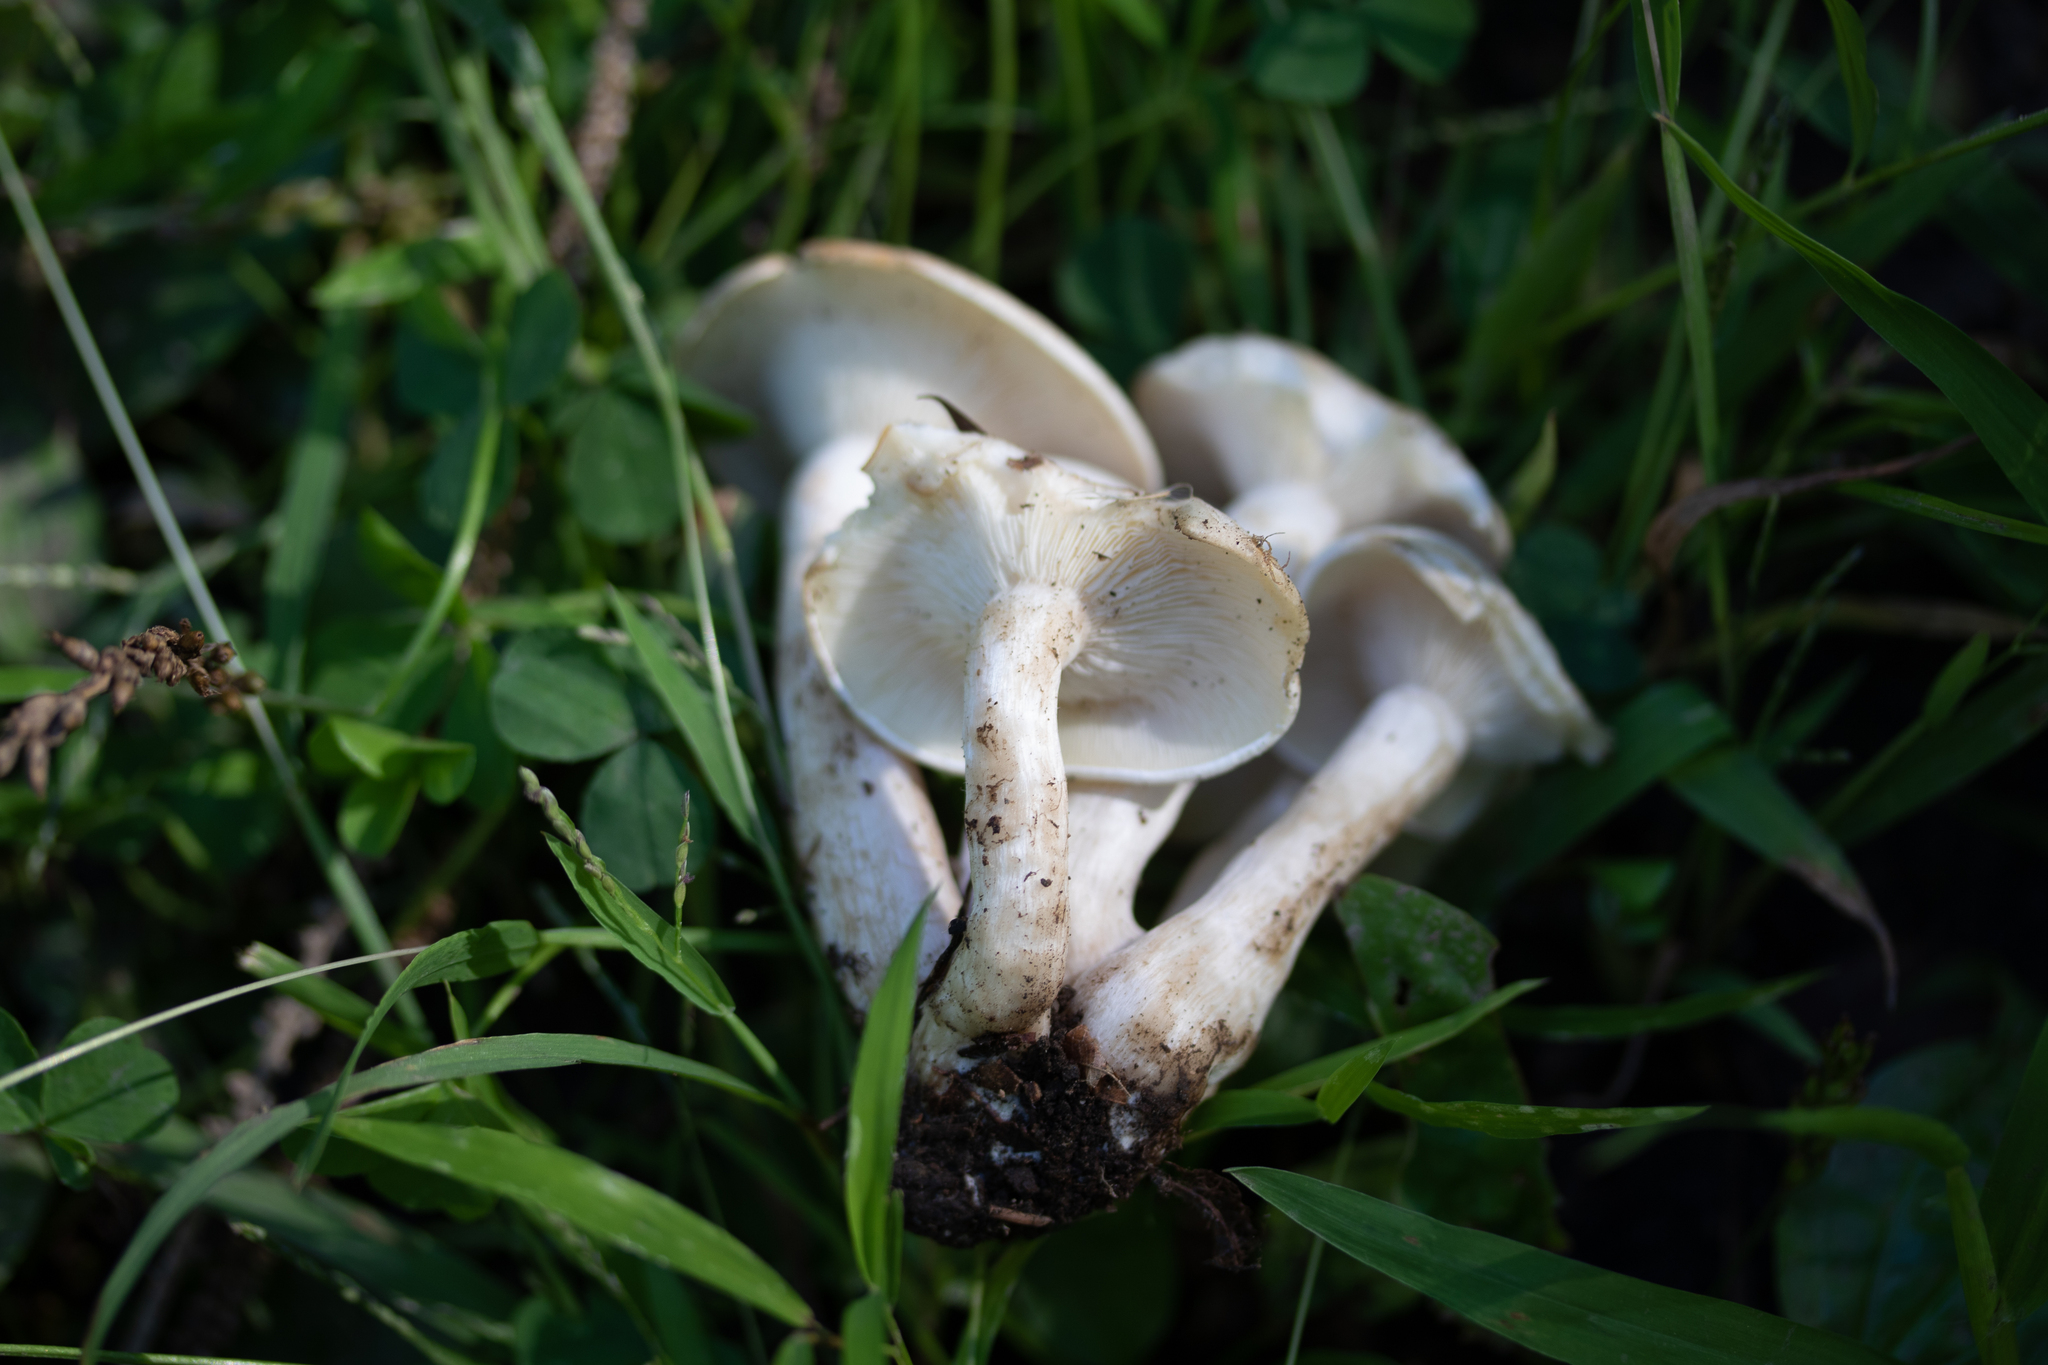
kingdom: Fungi
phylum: Basidiomycota
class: Agaricomycetes
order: Agaricales
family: Tricholomataceae
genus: Leucocybe
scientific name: Leucocybe connata
